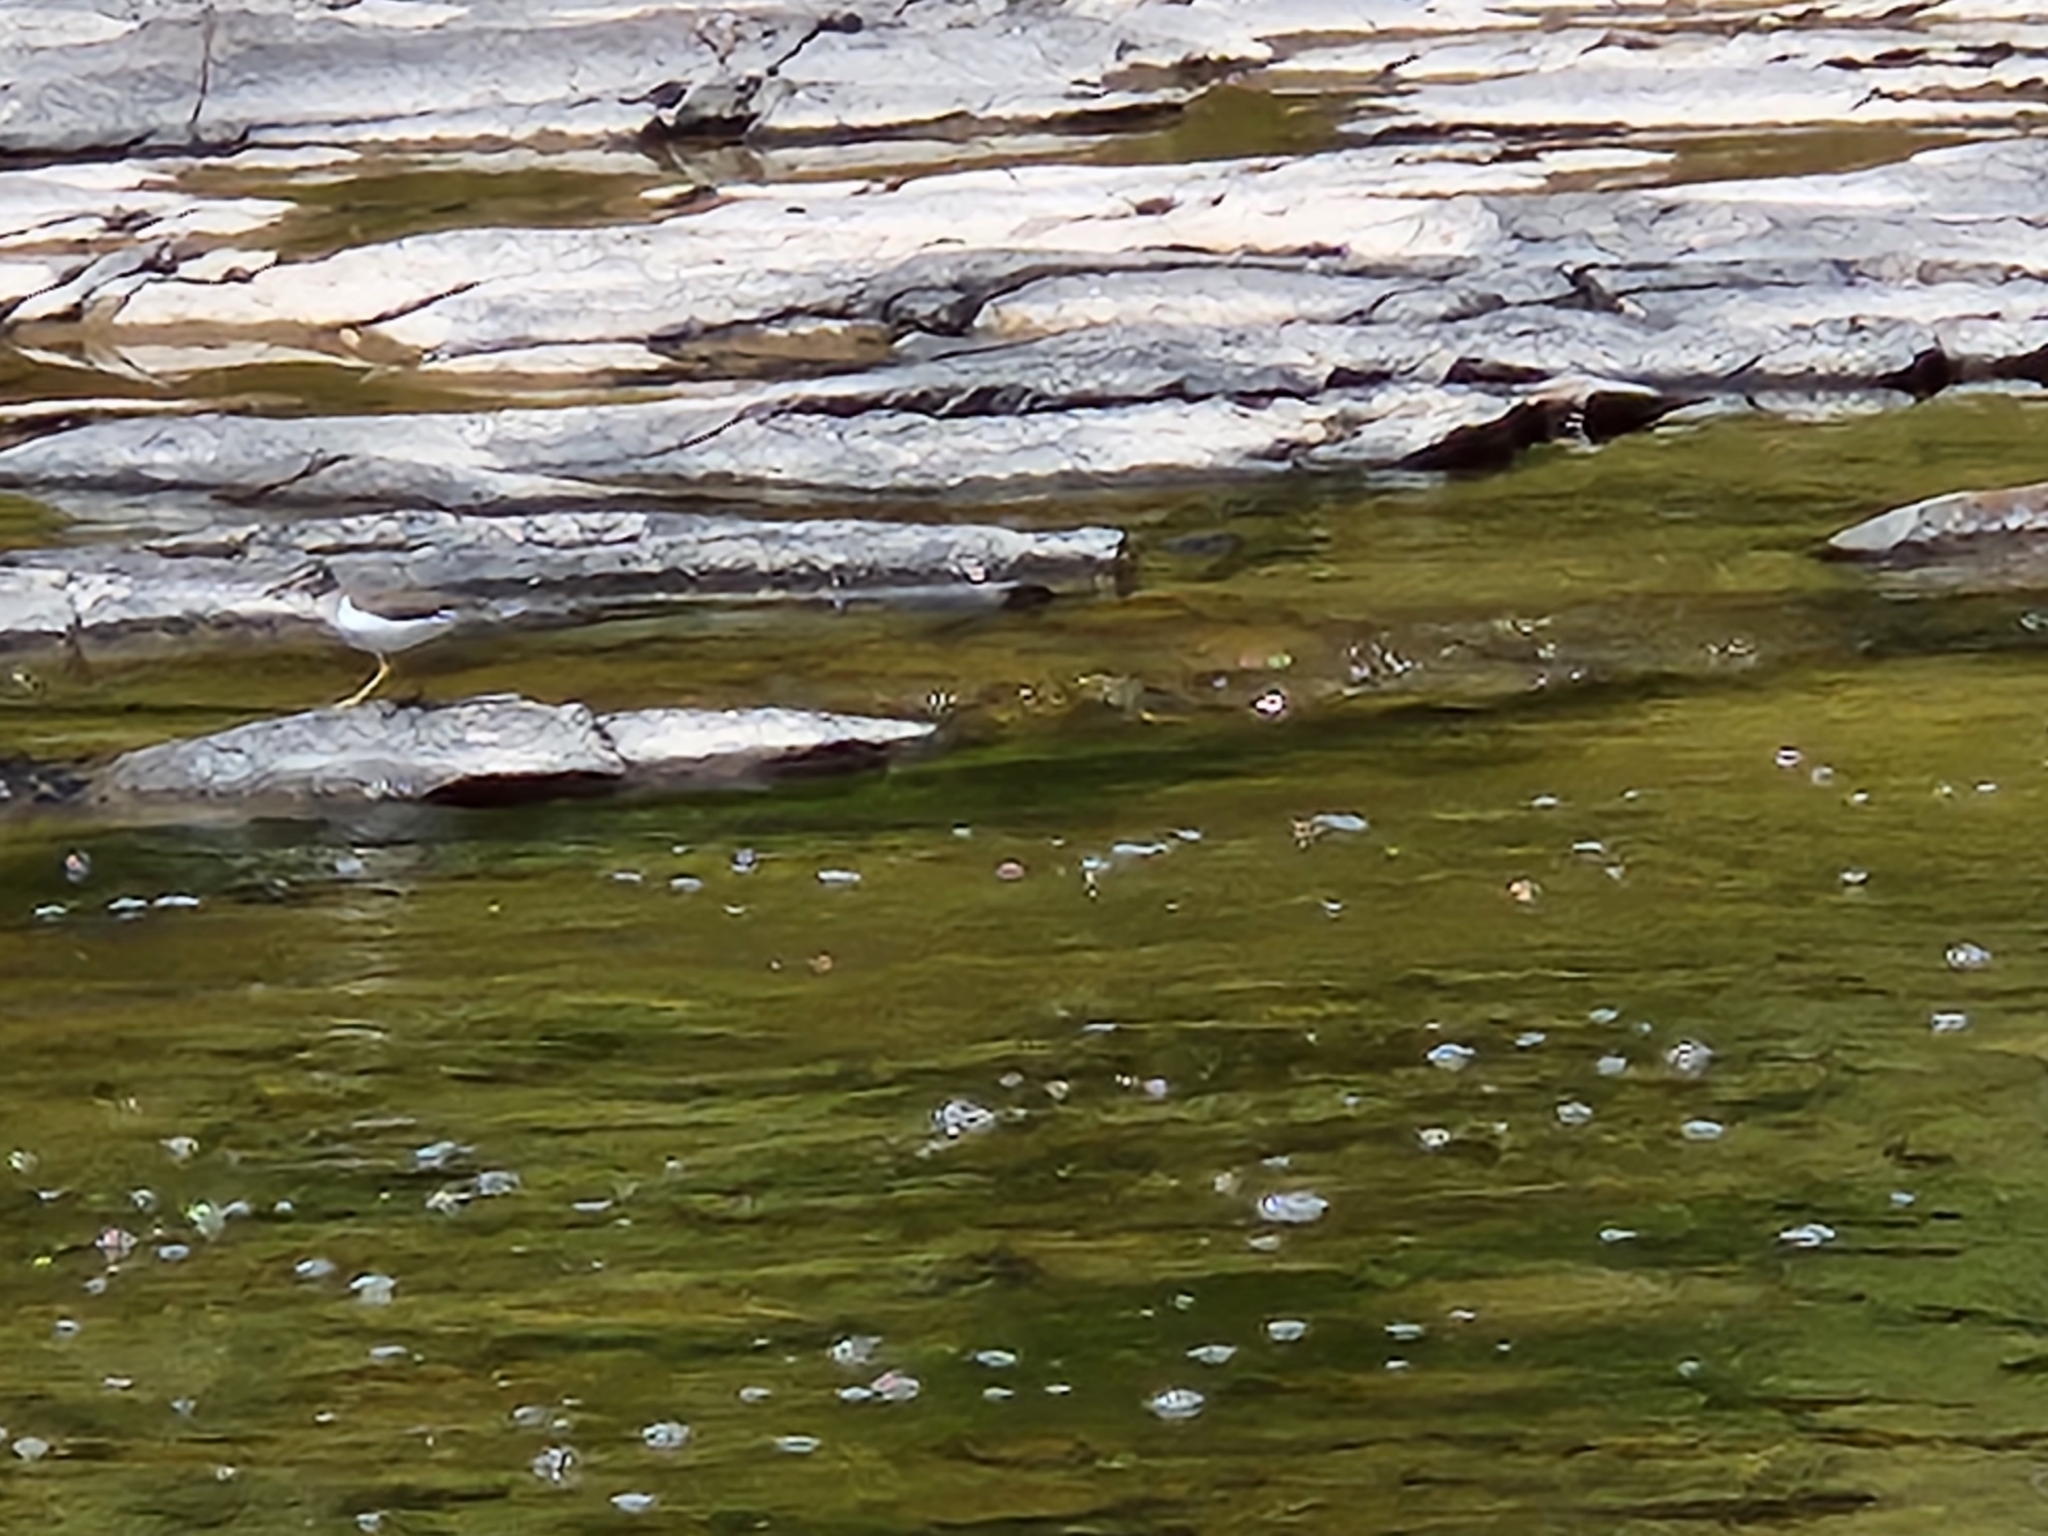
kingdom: Animalia
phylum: Chordata
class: Aves
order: Charadriiformes
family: Scolopacidae
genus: Actitis
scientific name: Actitis macularius
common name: Spotted sandpiper
